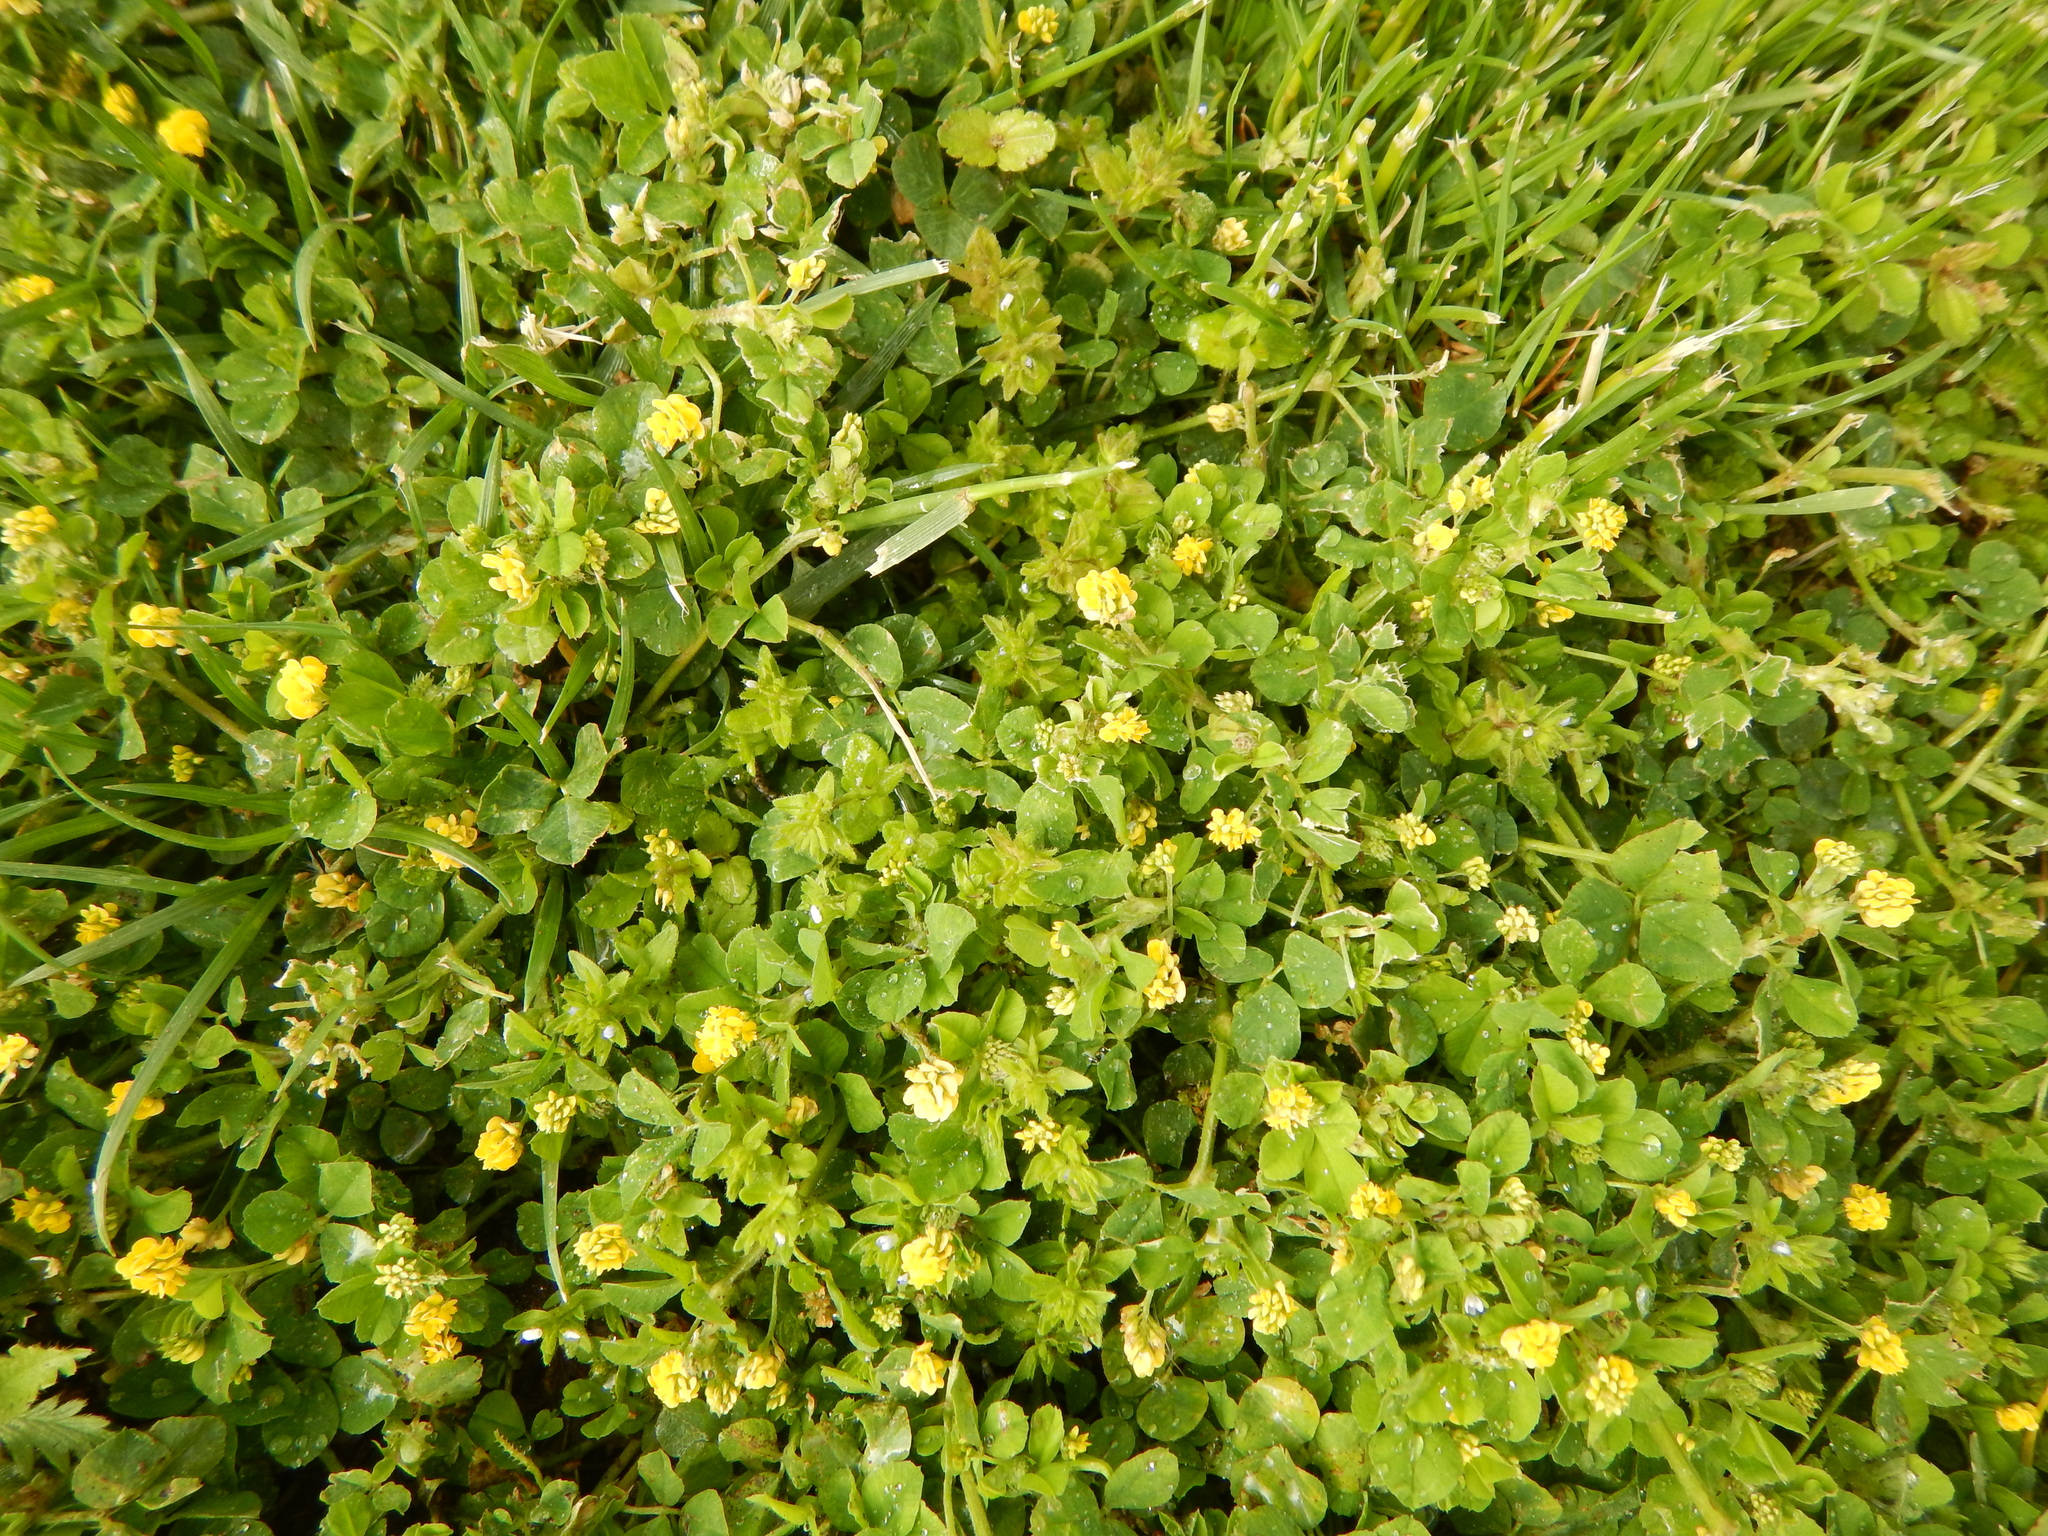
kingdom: Plantae
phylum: Tracheophyta
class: Magnoliopsida
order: Fabales
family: Fabaceae
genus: Medicago
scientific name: Medicago lupulina
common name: Black medick
